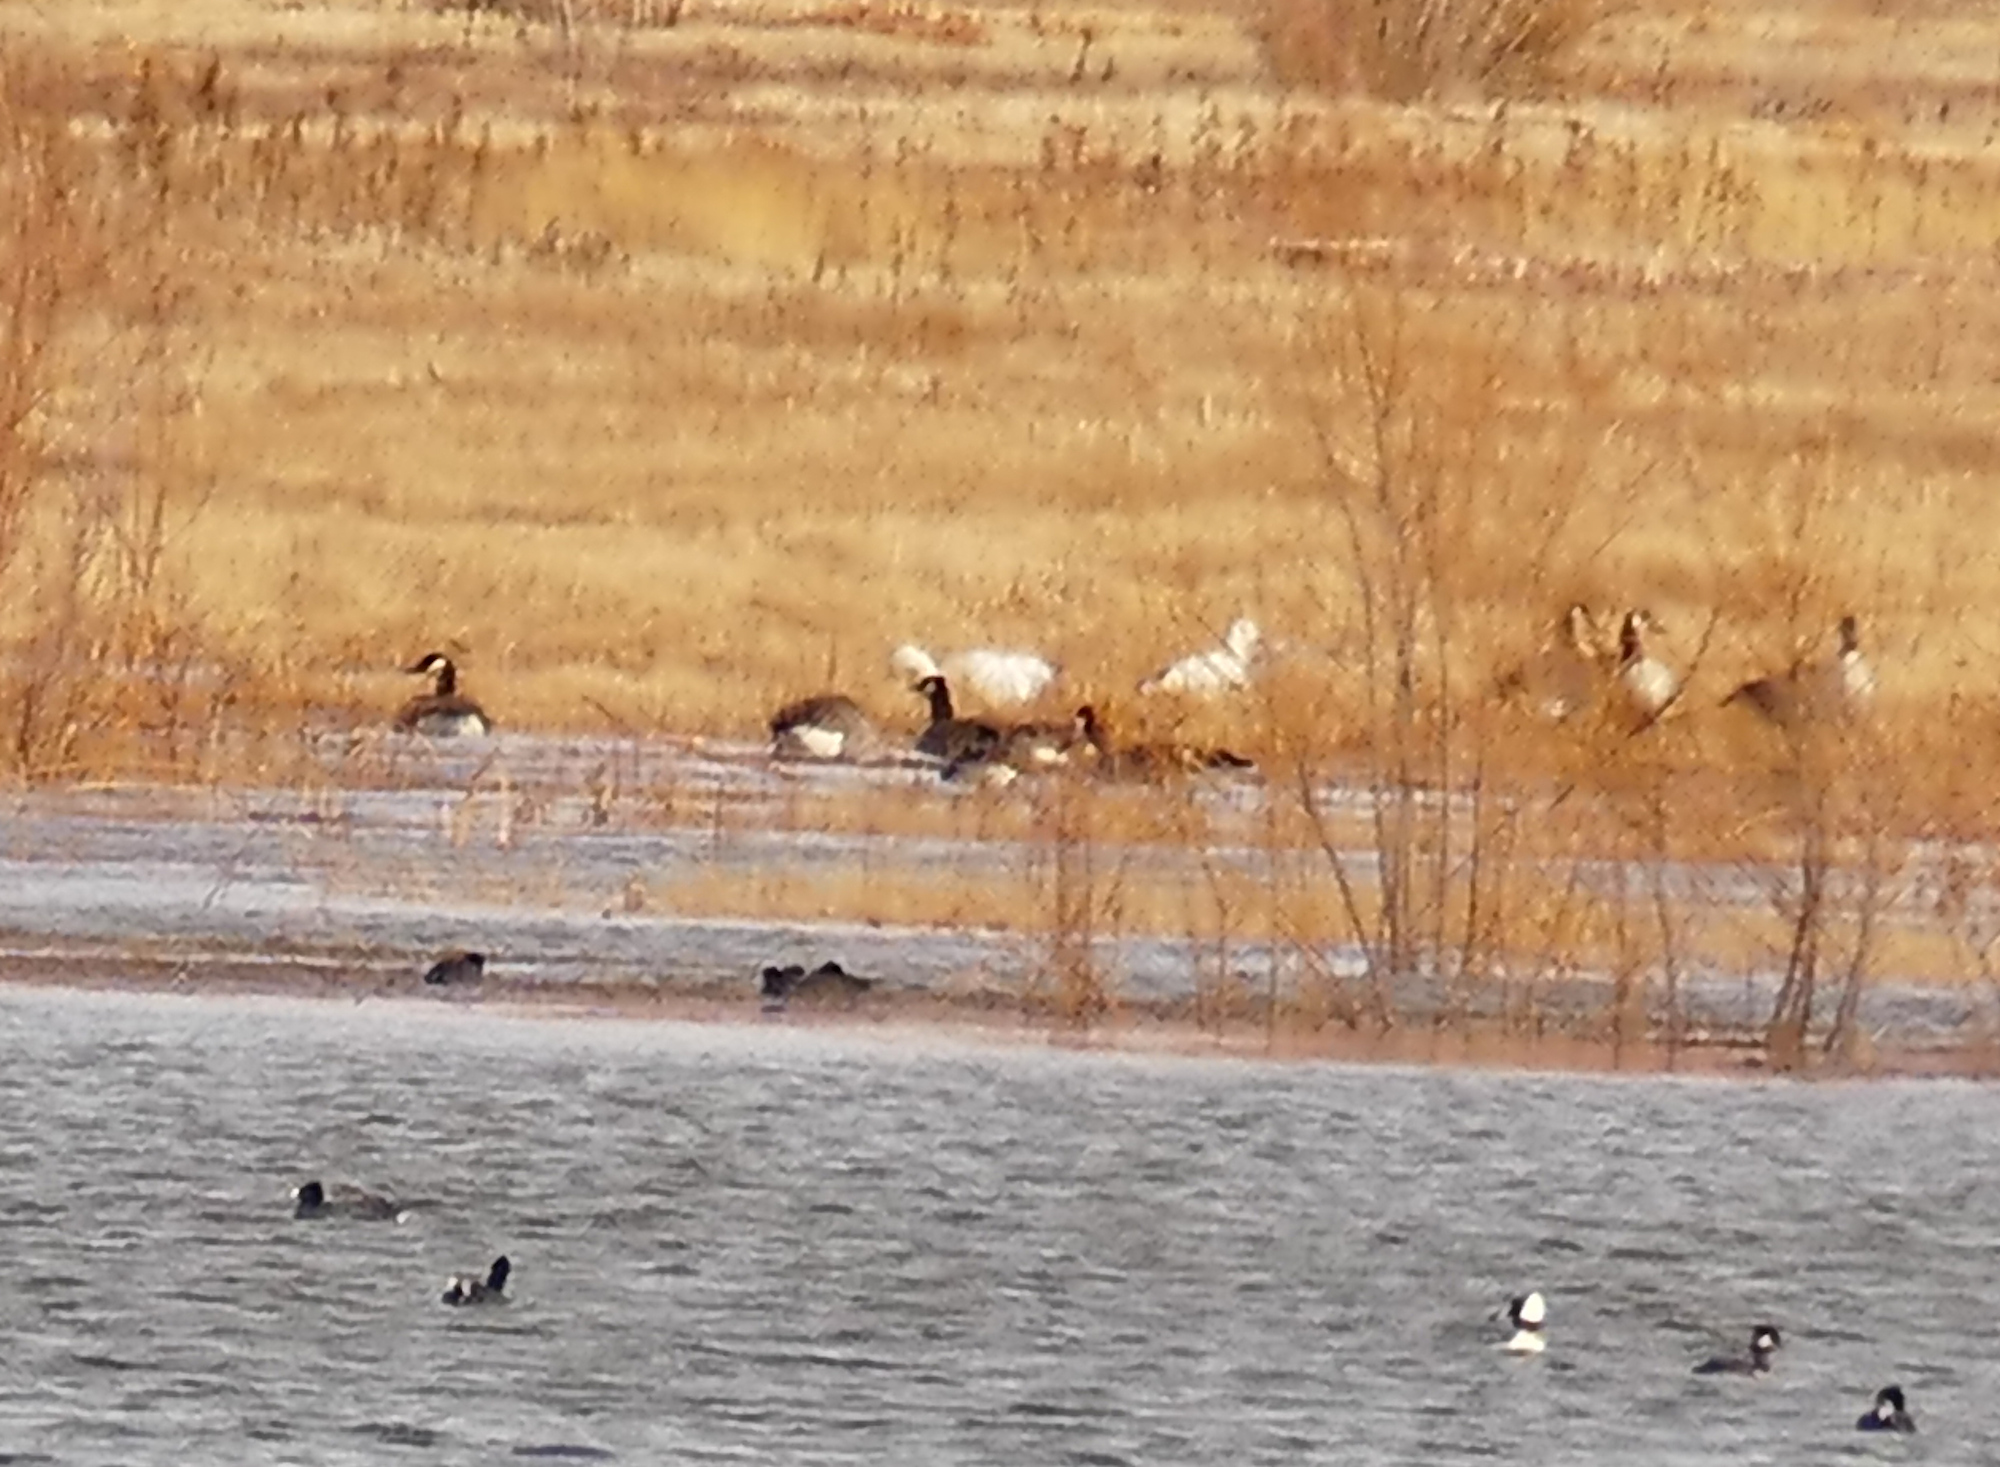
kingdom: Animalia
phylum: Chordata
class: Aves
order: Anseriformes
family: Anatidae
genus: Anser
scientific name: Anser caerulescens
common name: Snow goose
